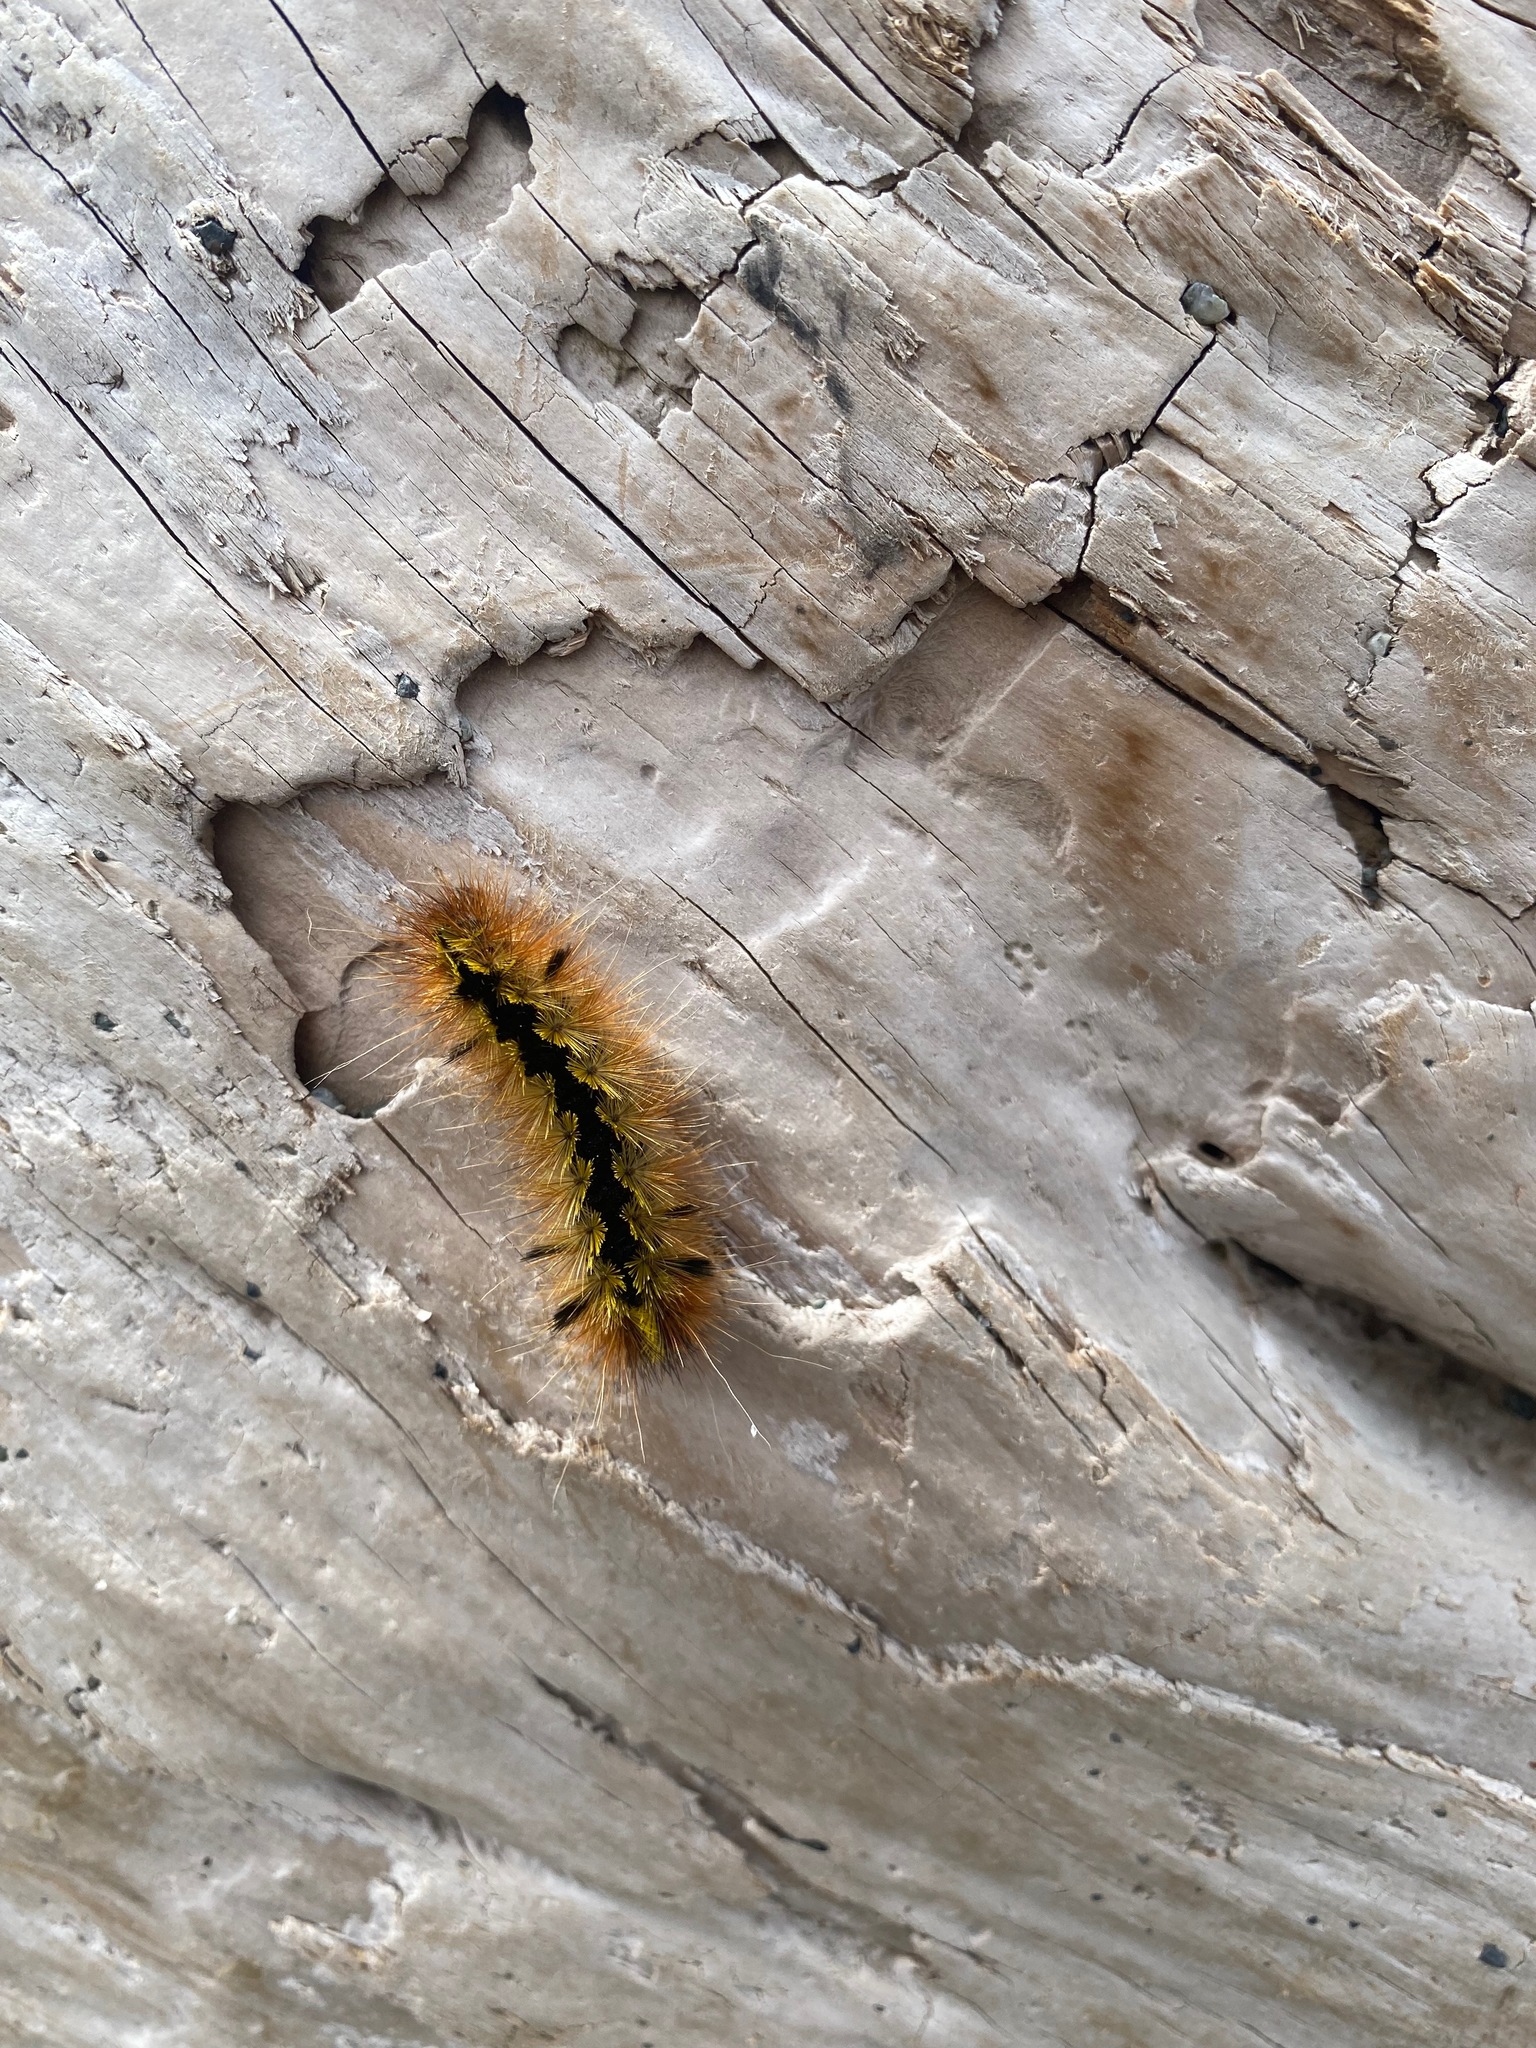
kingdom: Animalia
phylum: Arthropoda
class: Insecta
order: Lepidoptera
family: Erebidae
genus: Lophocampa
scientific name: Lophocampa argentata
